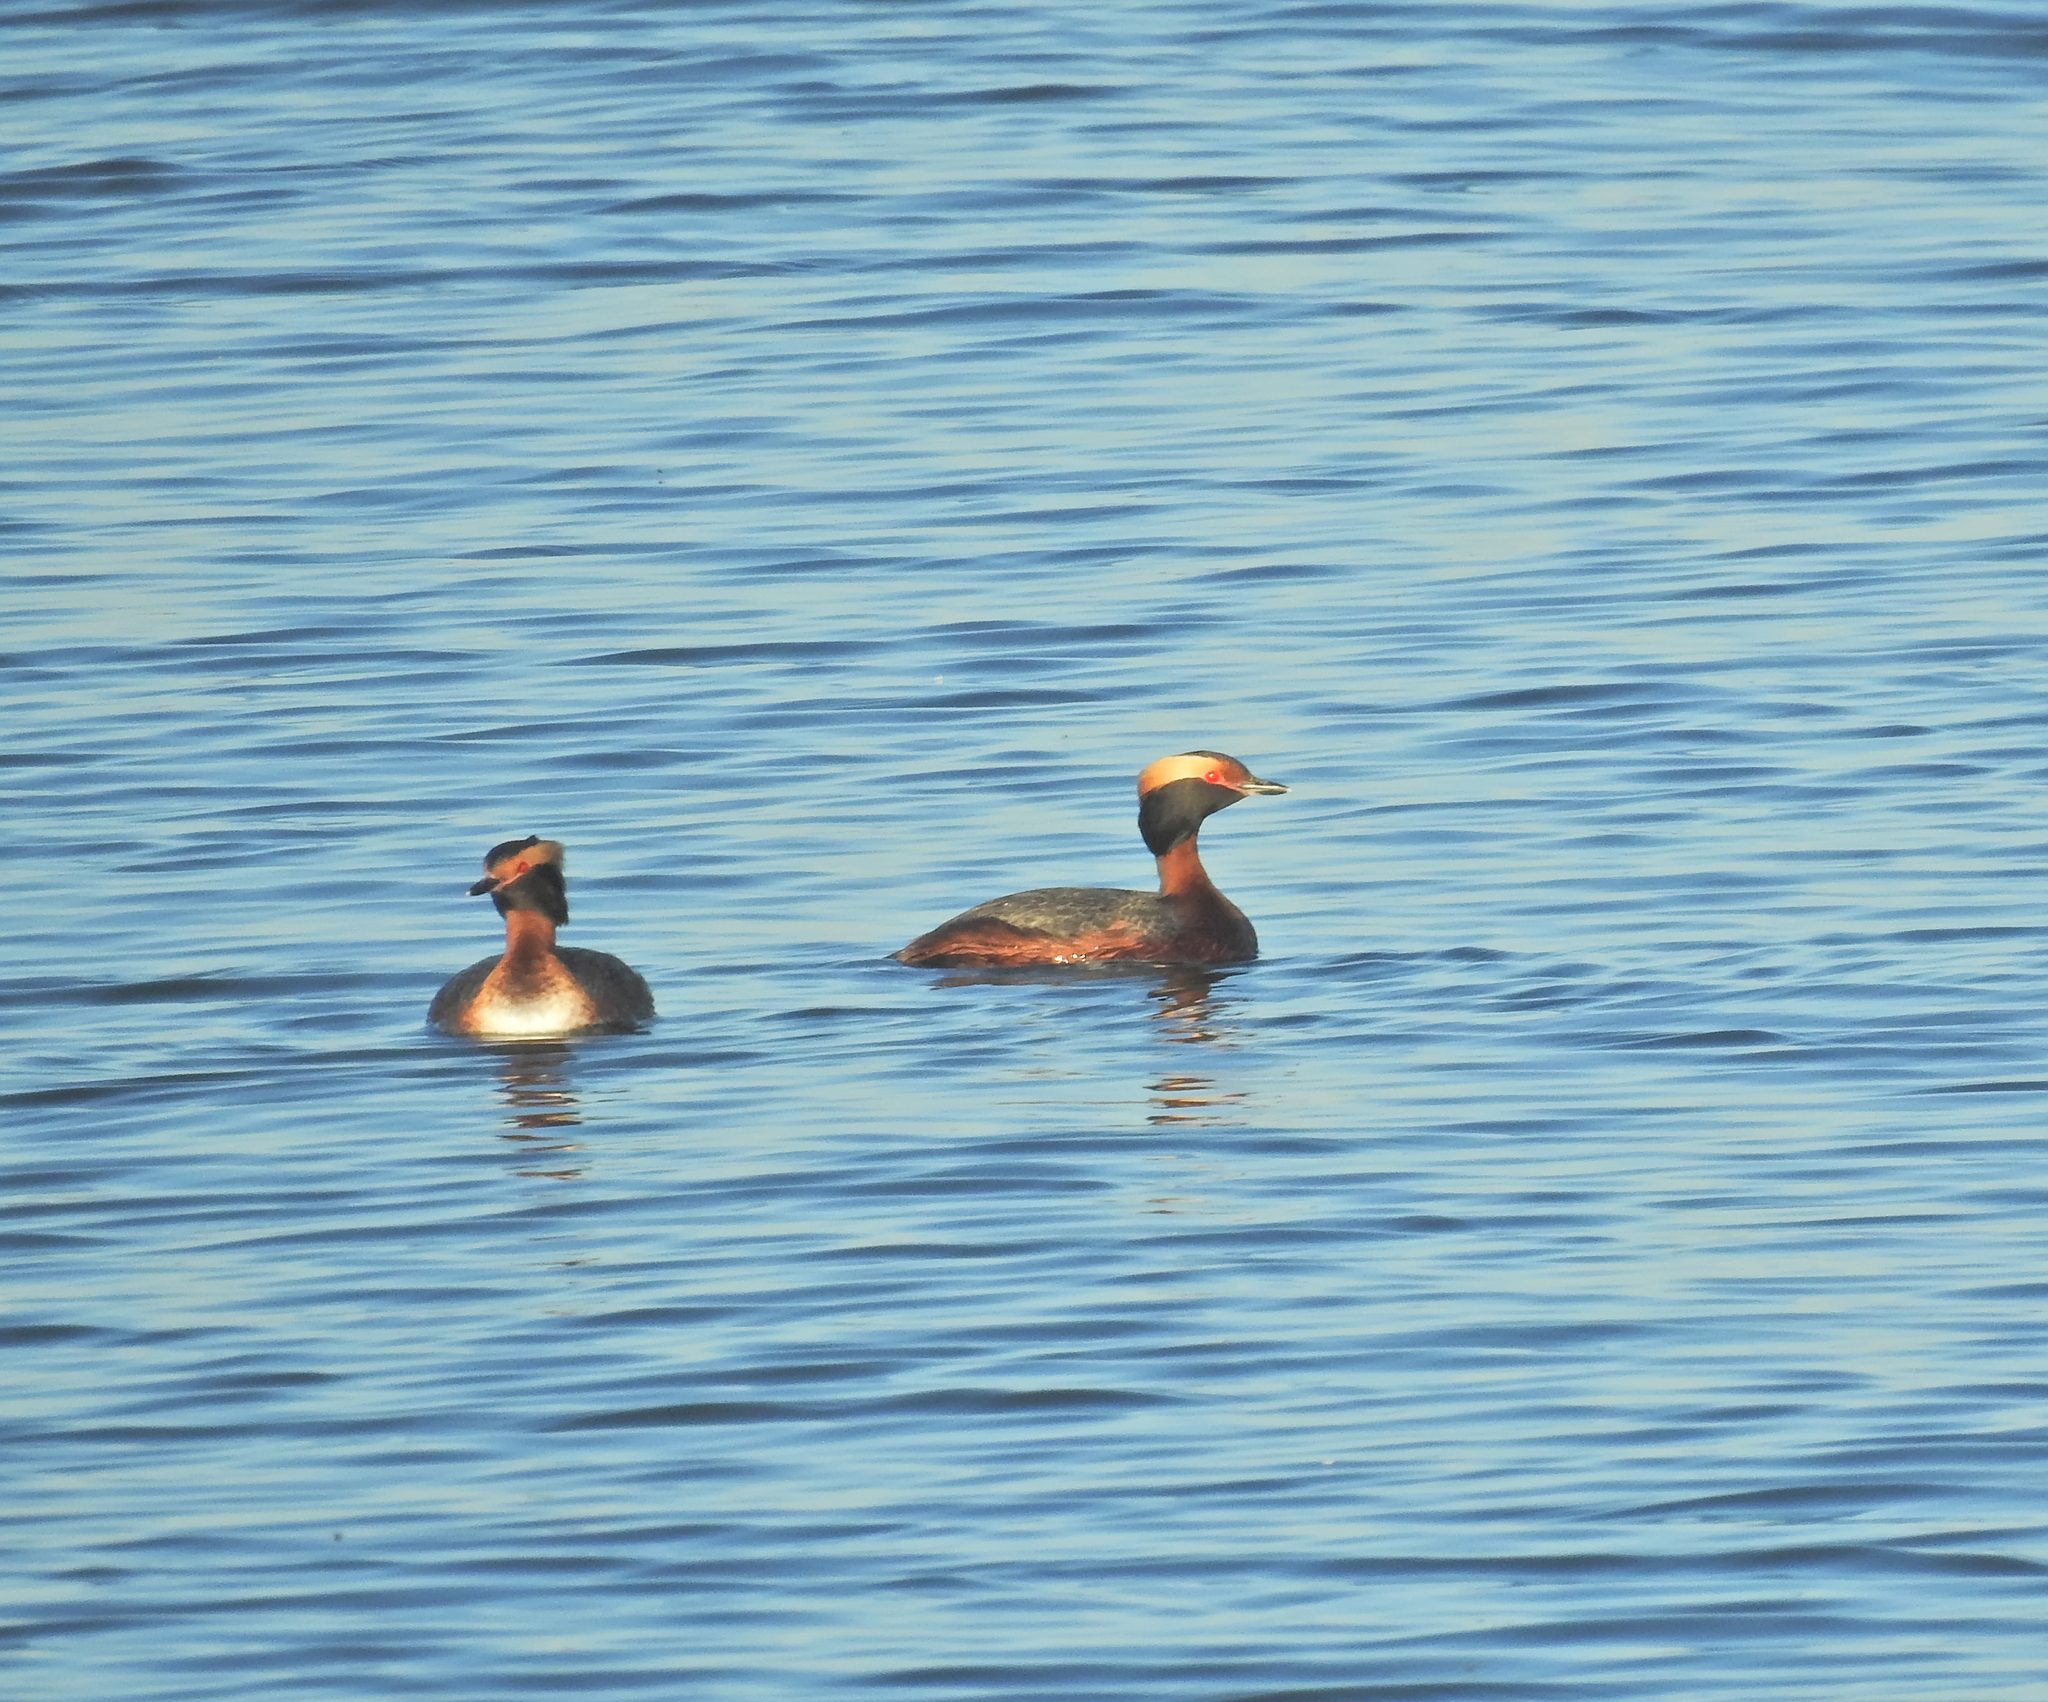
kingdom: Animalia
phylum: Chordata
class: Aves
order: Podicipediformes
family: Podicipedidae
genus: Podiceps
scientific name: Podiceps auritus
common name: Horned grebe
